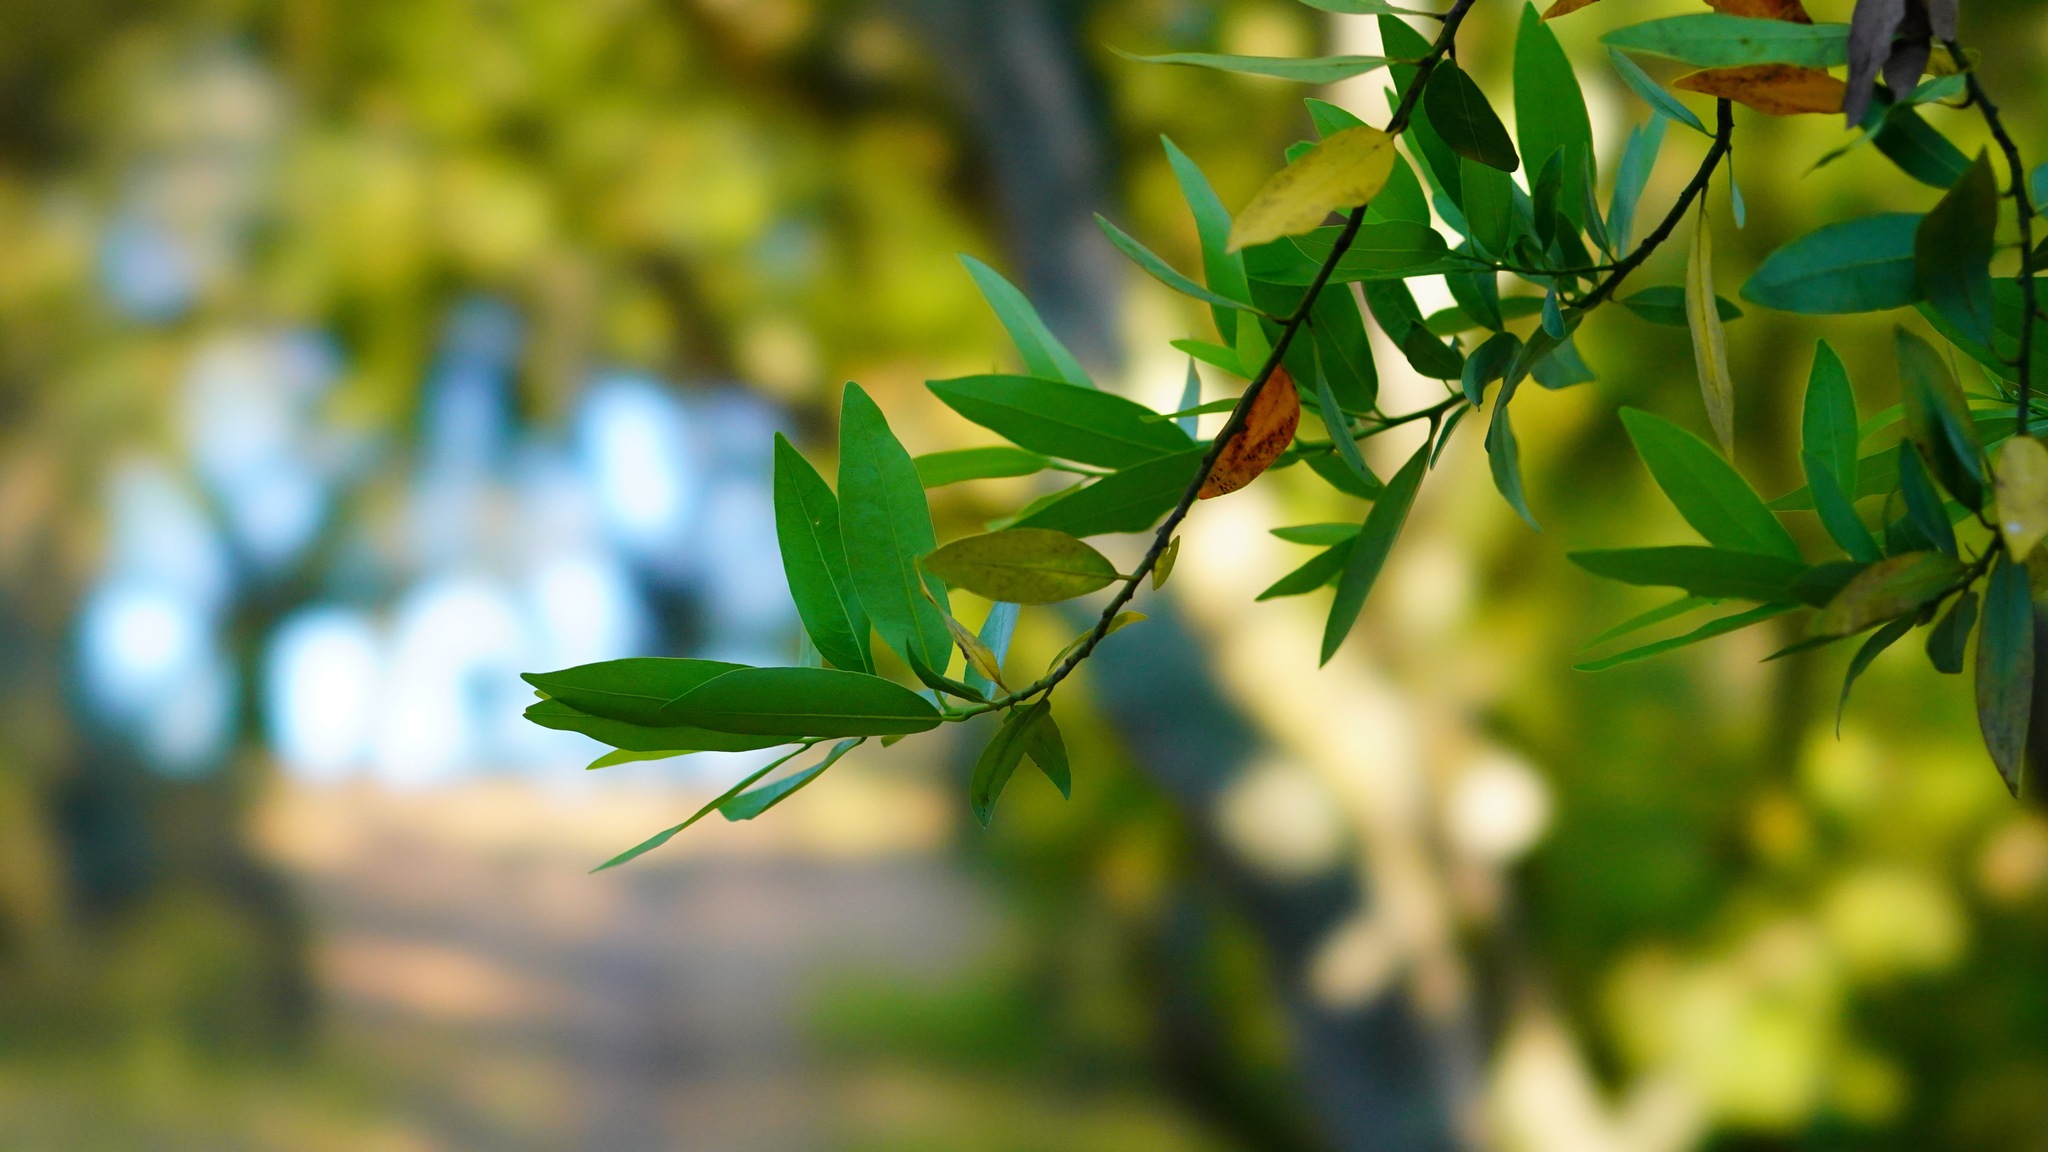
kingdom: Plantae
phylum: Tracheophyta
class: Magnoliopsida
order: Laurales
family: Lauraceae
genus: Umbellularia
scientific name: Umbellularia californica
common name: California bay
